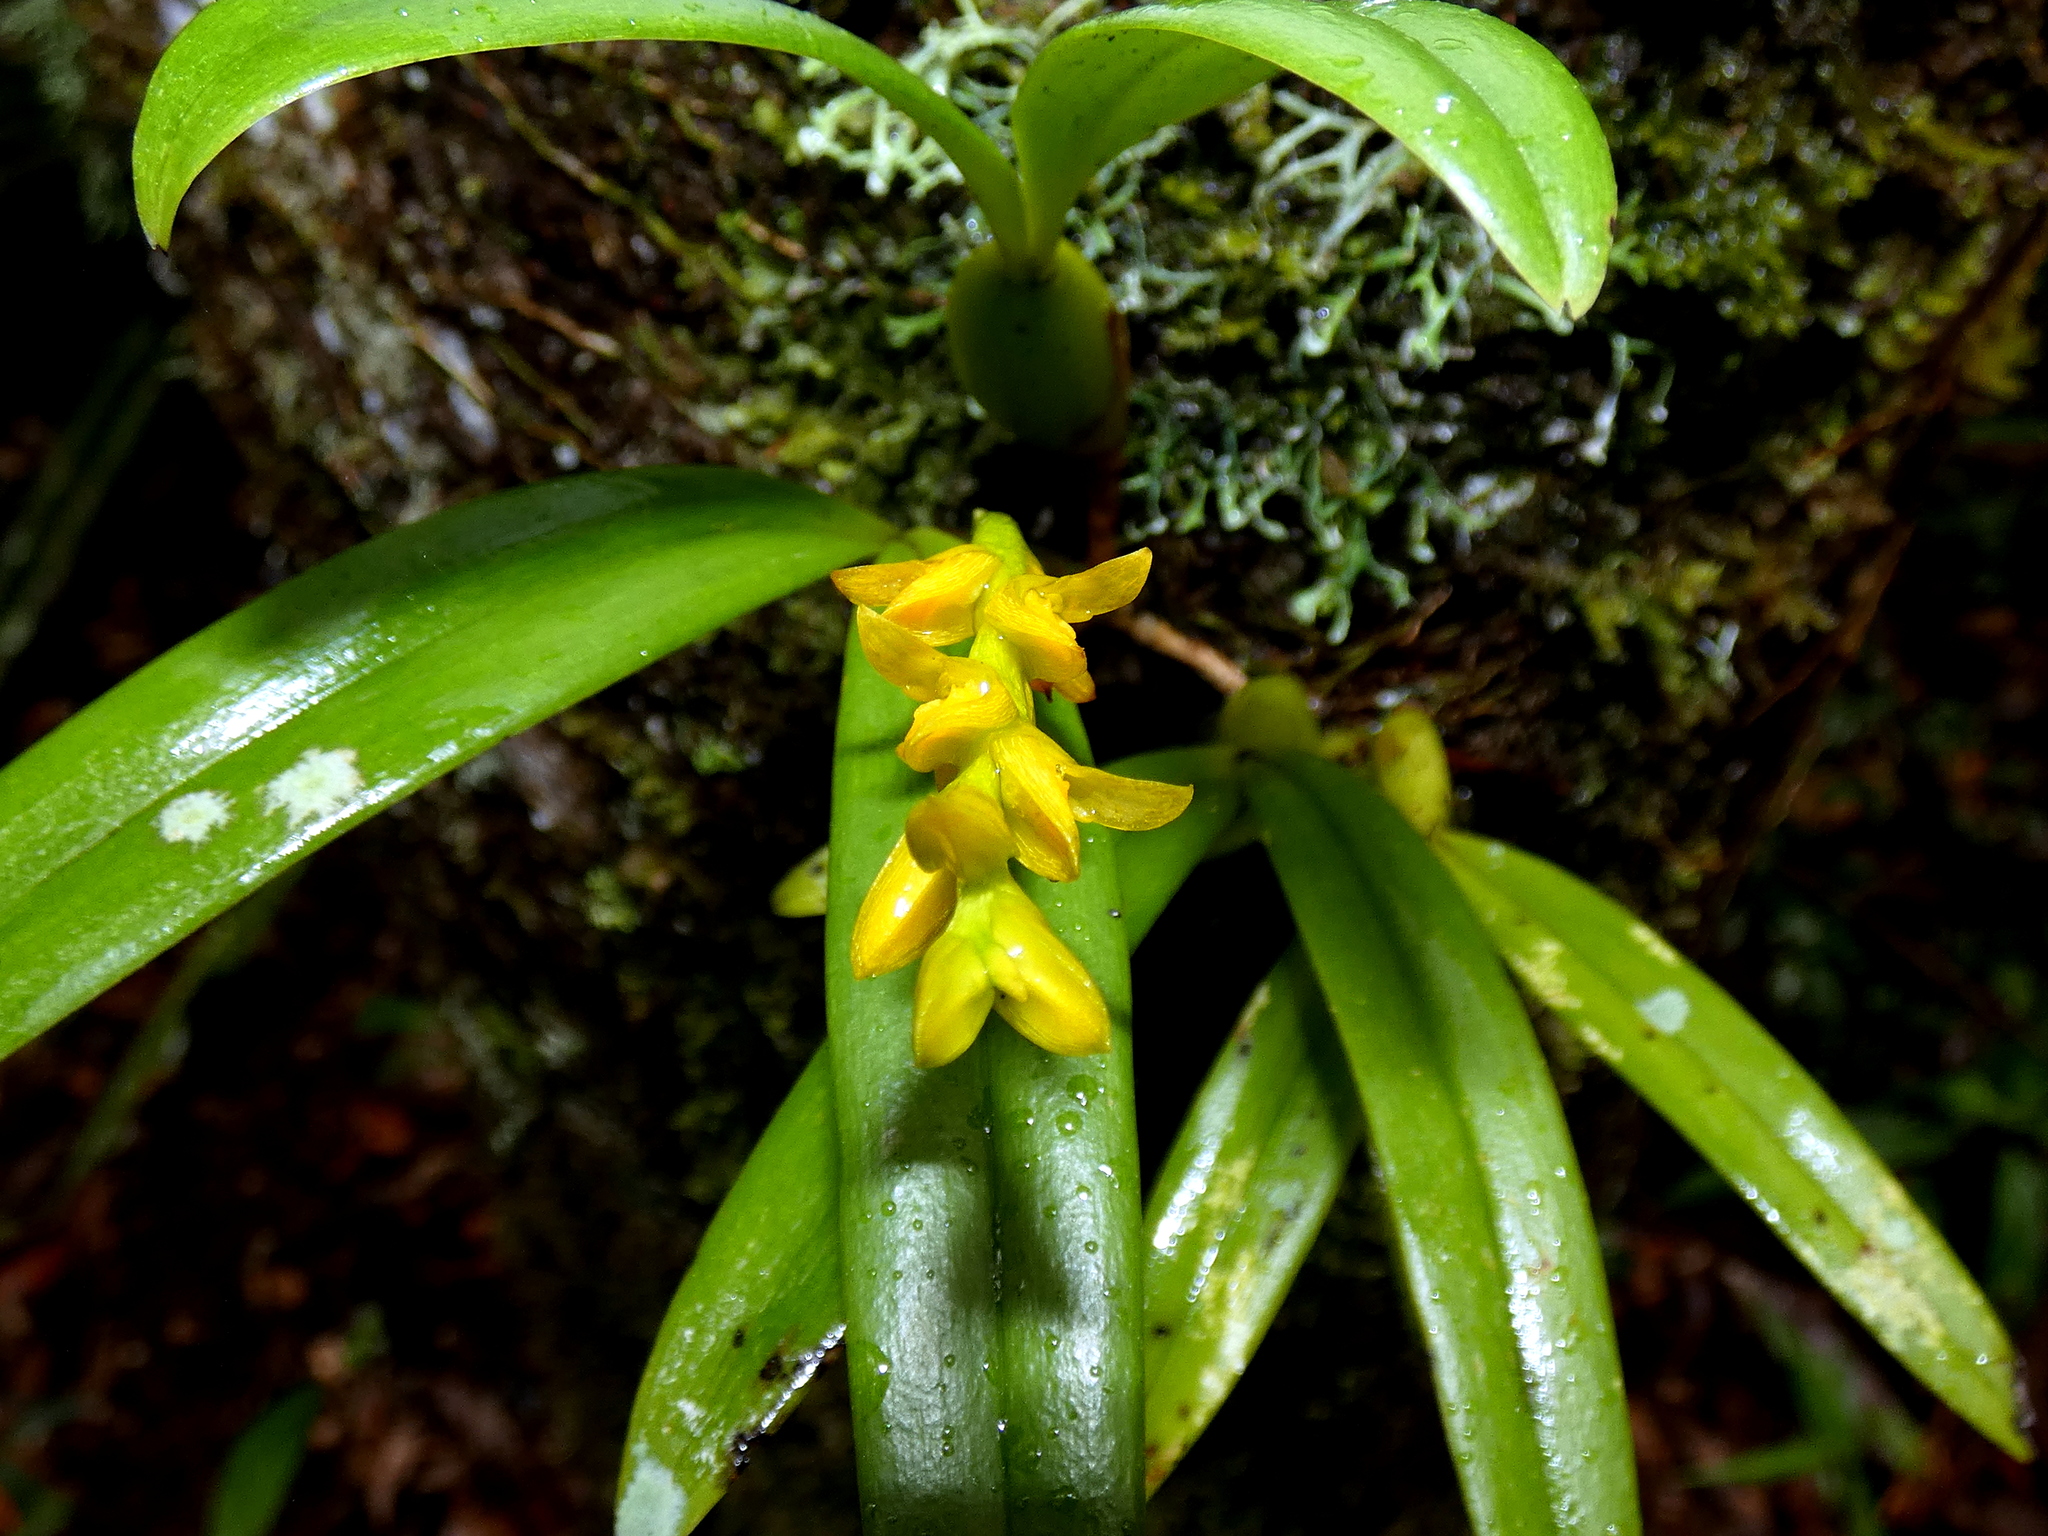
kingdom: Plantae
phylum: Tracheophyta
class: Liliopsida
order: Asparagales
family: Orchidaceae
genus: Bulbophyllum
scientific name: Bulbophyllum auriflorum
